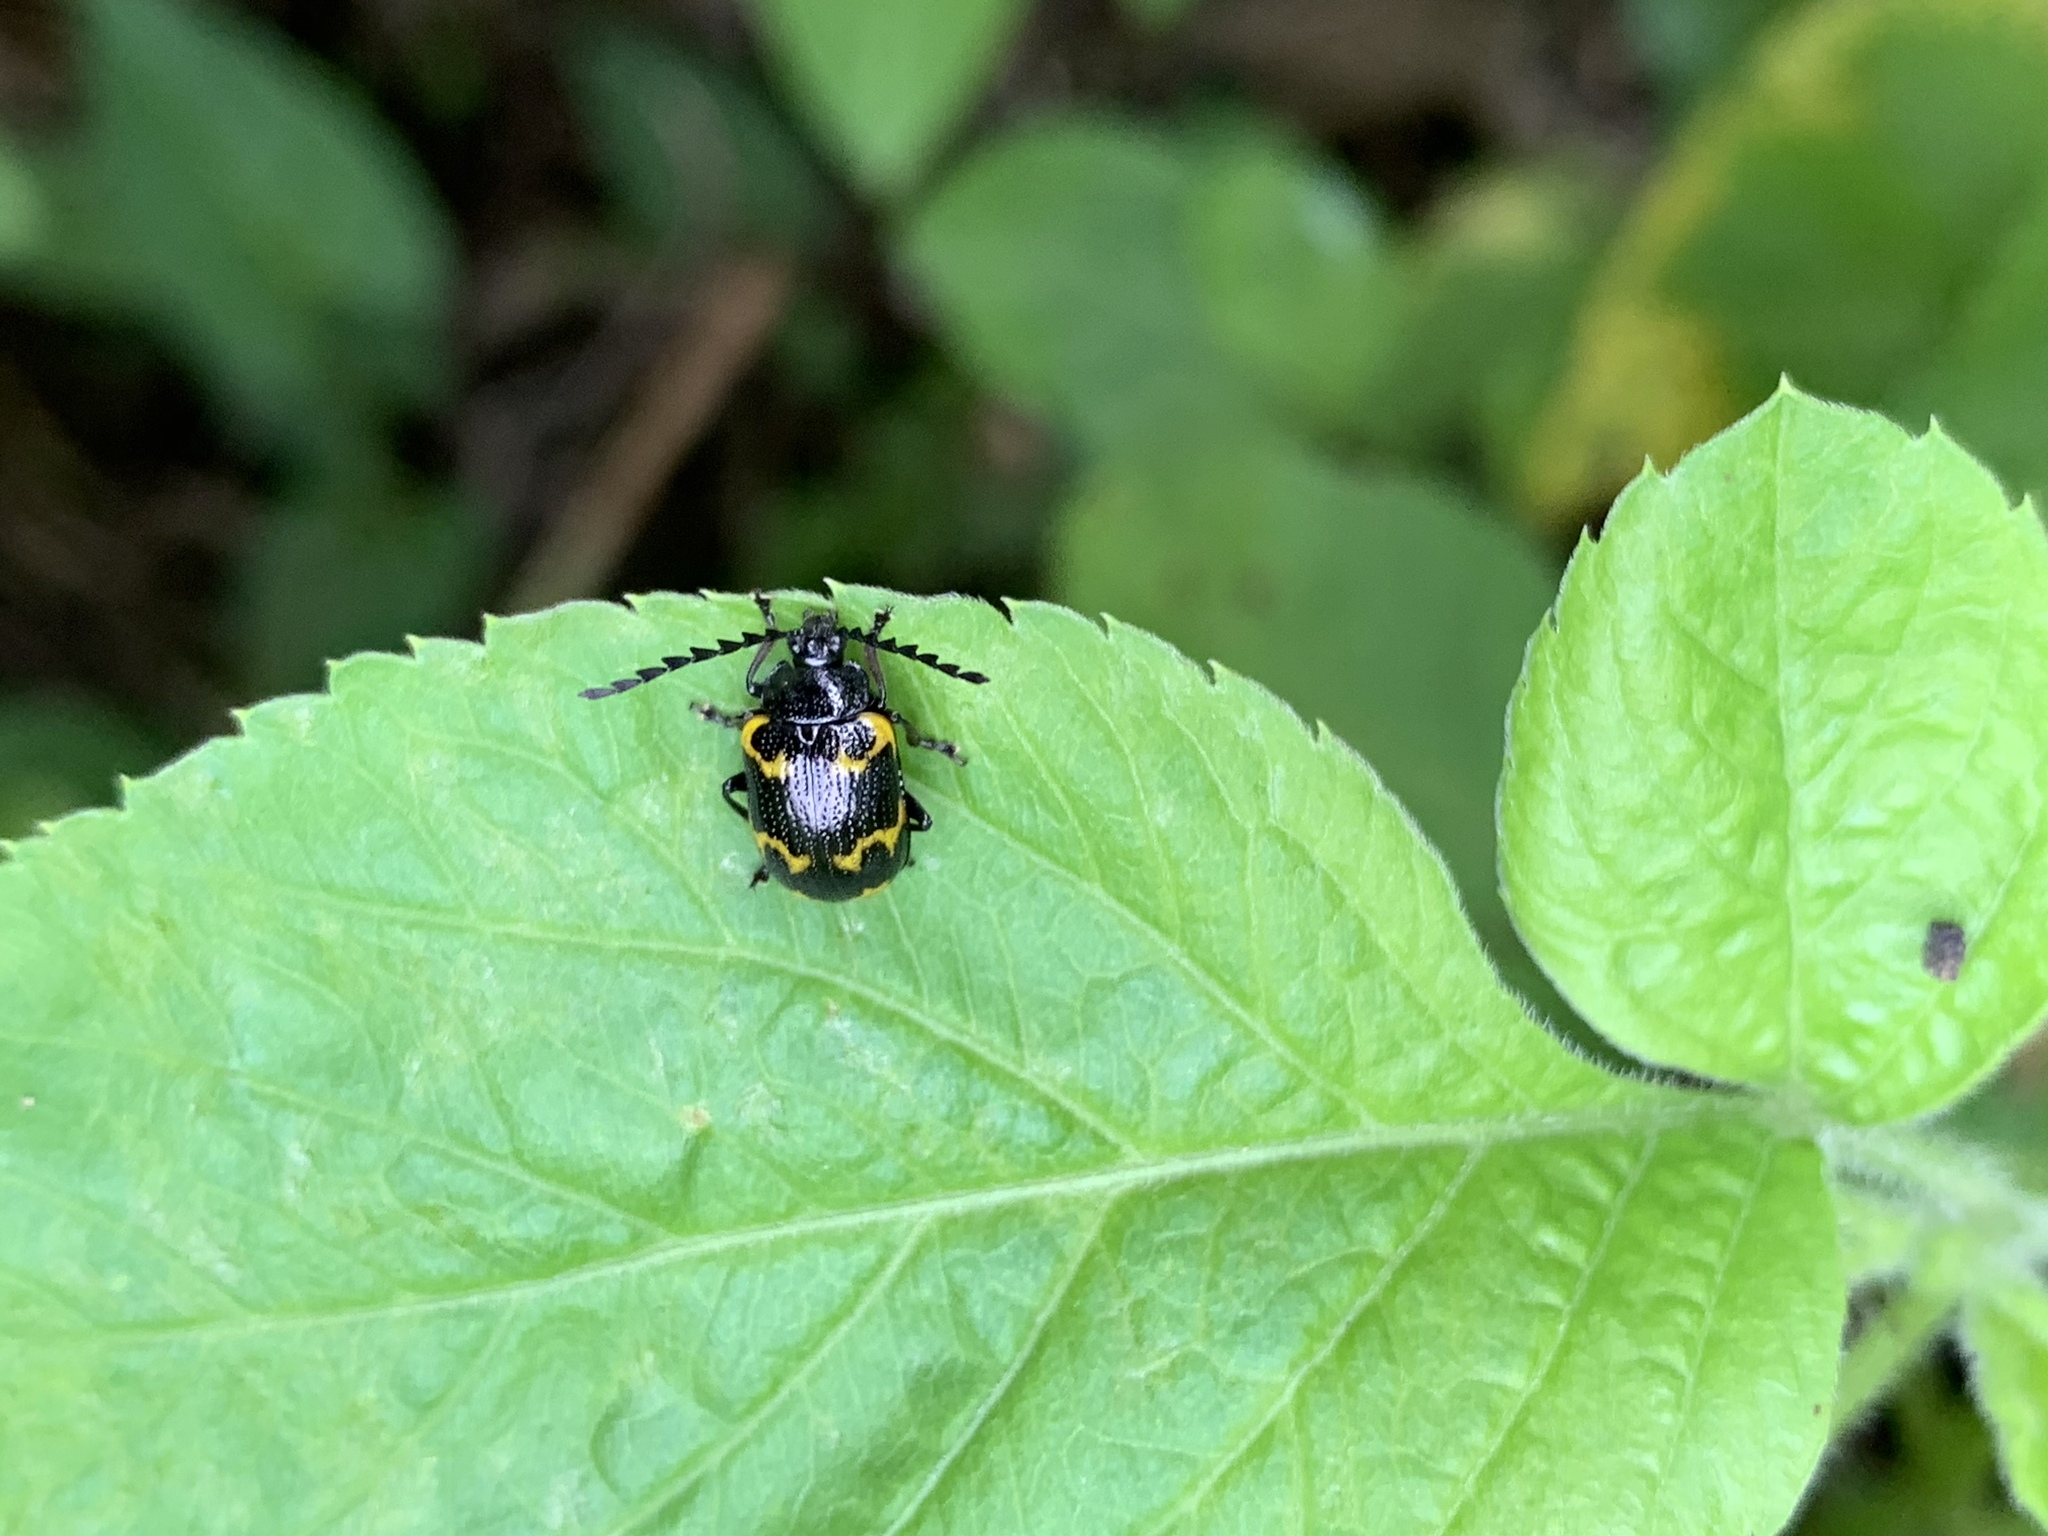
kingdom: Animalia
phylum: Arthropoda
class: Insecta
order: Coleoptera
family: Chrysomelidae
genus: Gallerucida
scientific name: Gallerucida bifasciata
